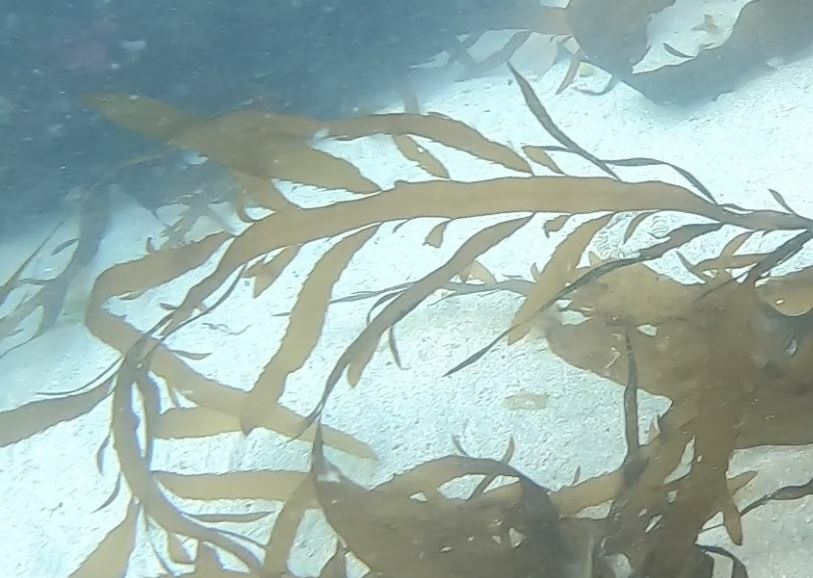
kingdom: Chromista
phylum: Ochrophyta
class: Phaeophyceae
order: Desmarestiales
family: Desmarestiaceae
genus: Desmarestia
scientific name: Desmarestia ligulata
